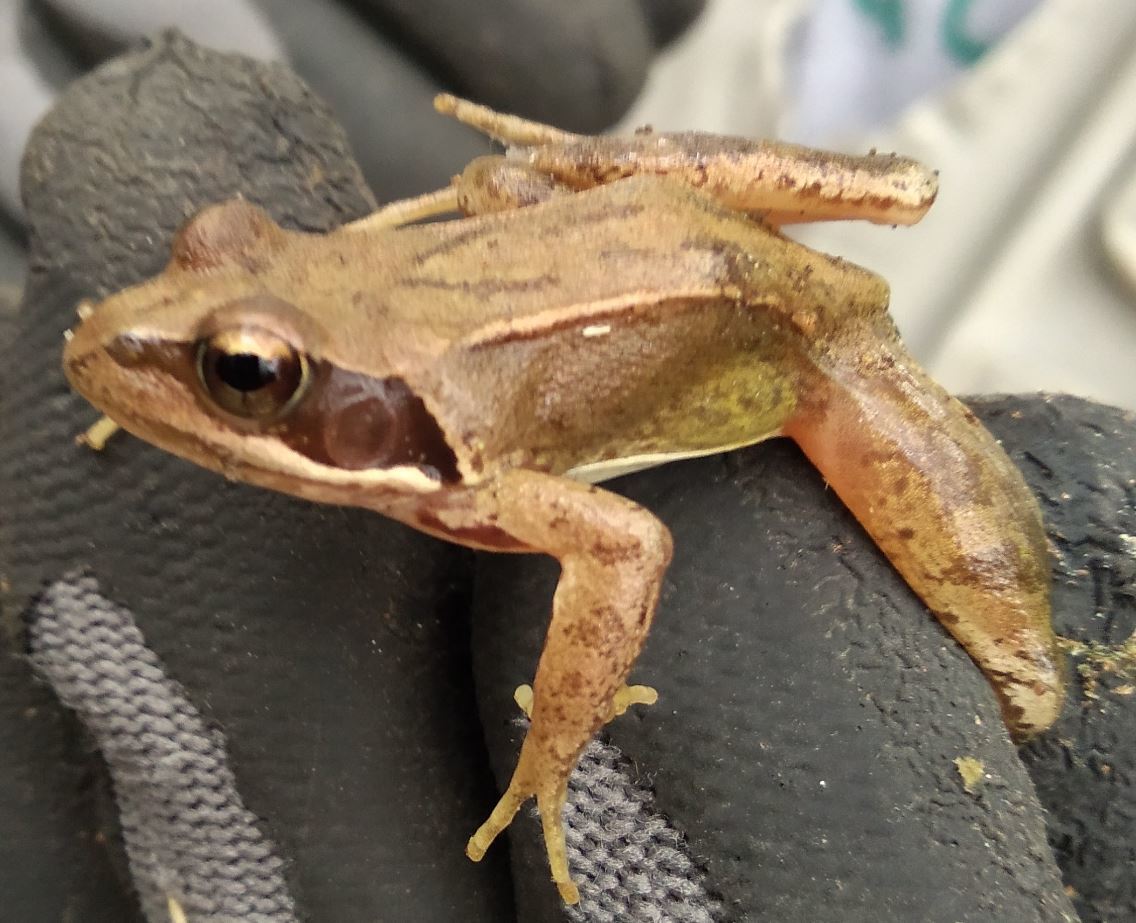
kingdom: Animalia
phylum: Chordata
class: Amphibia
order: Anura
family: Ranidae
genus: Rana
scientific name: Rana temporaria
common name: Common frog
